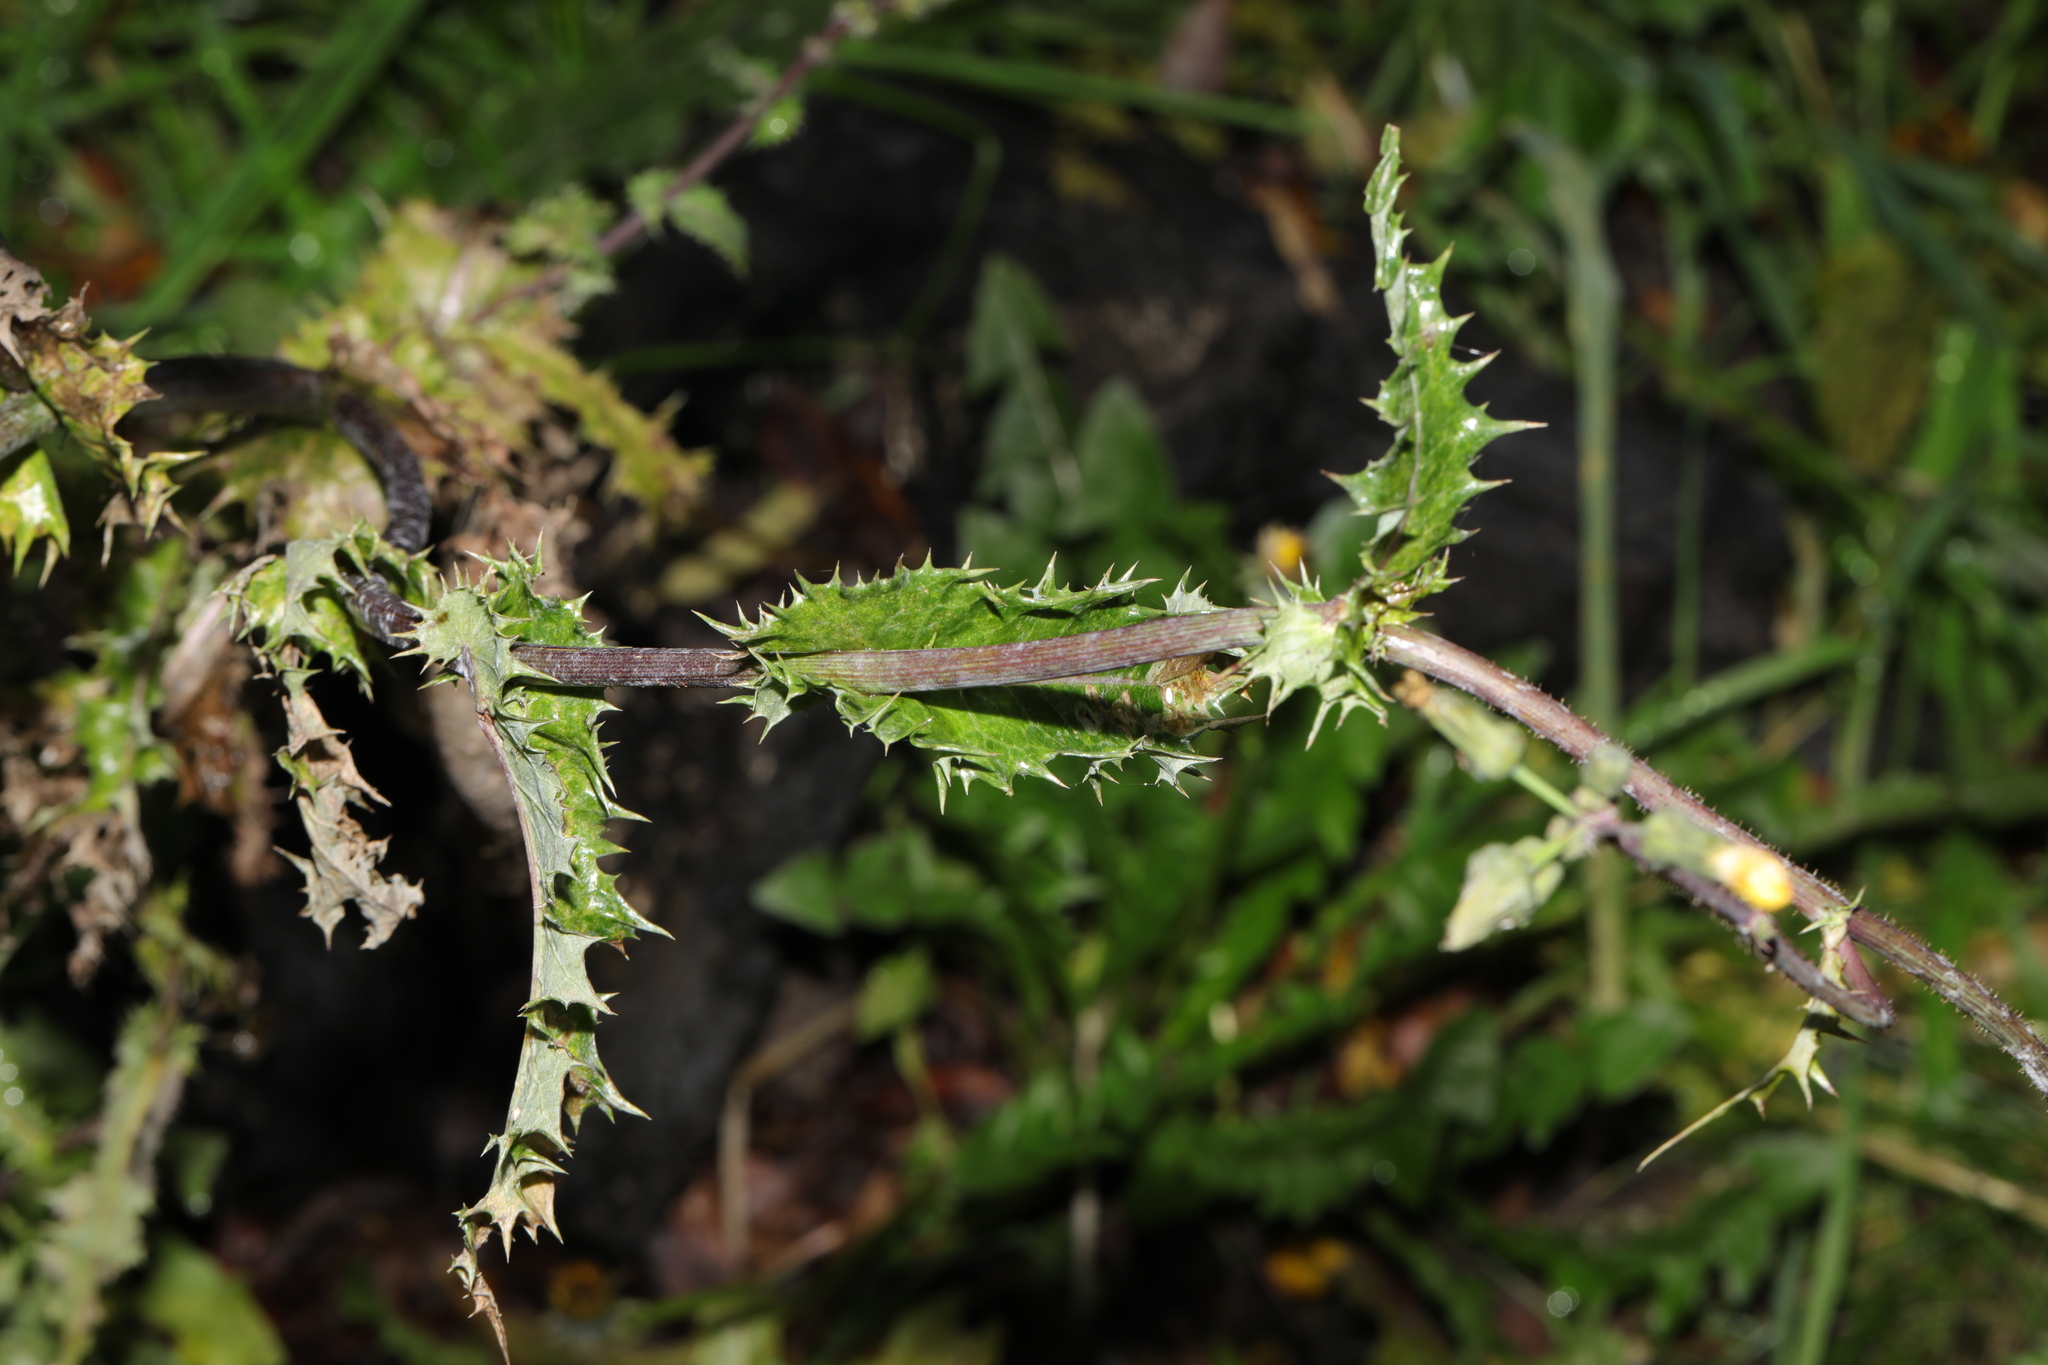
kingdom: Plantae
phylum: Tracheophyta
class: Magnoliopsida
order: Asterales
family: Asteraceae
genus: Sonchus
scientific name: Sonchus asper
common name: Prickly sow-thistle
